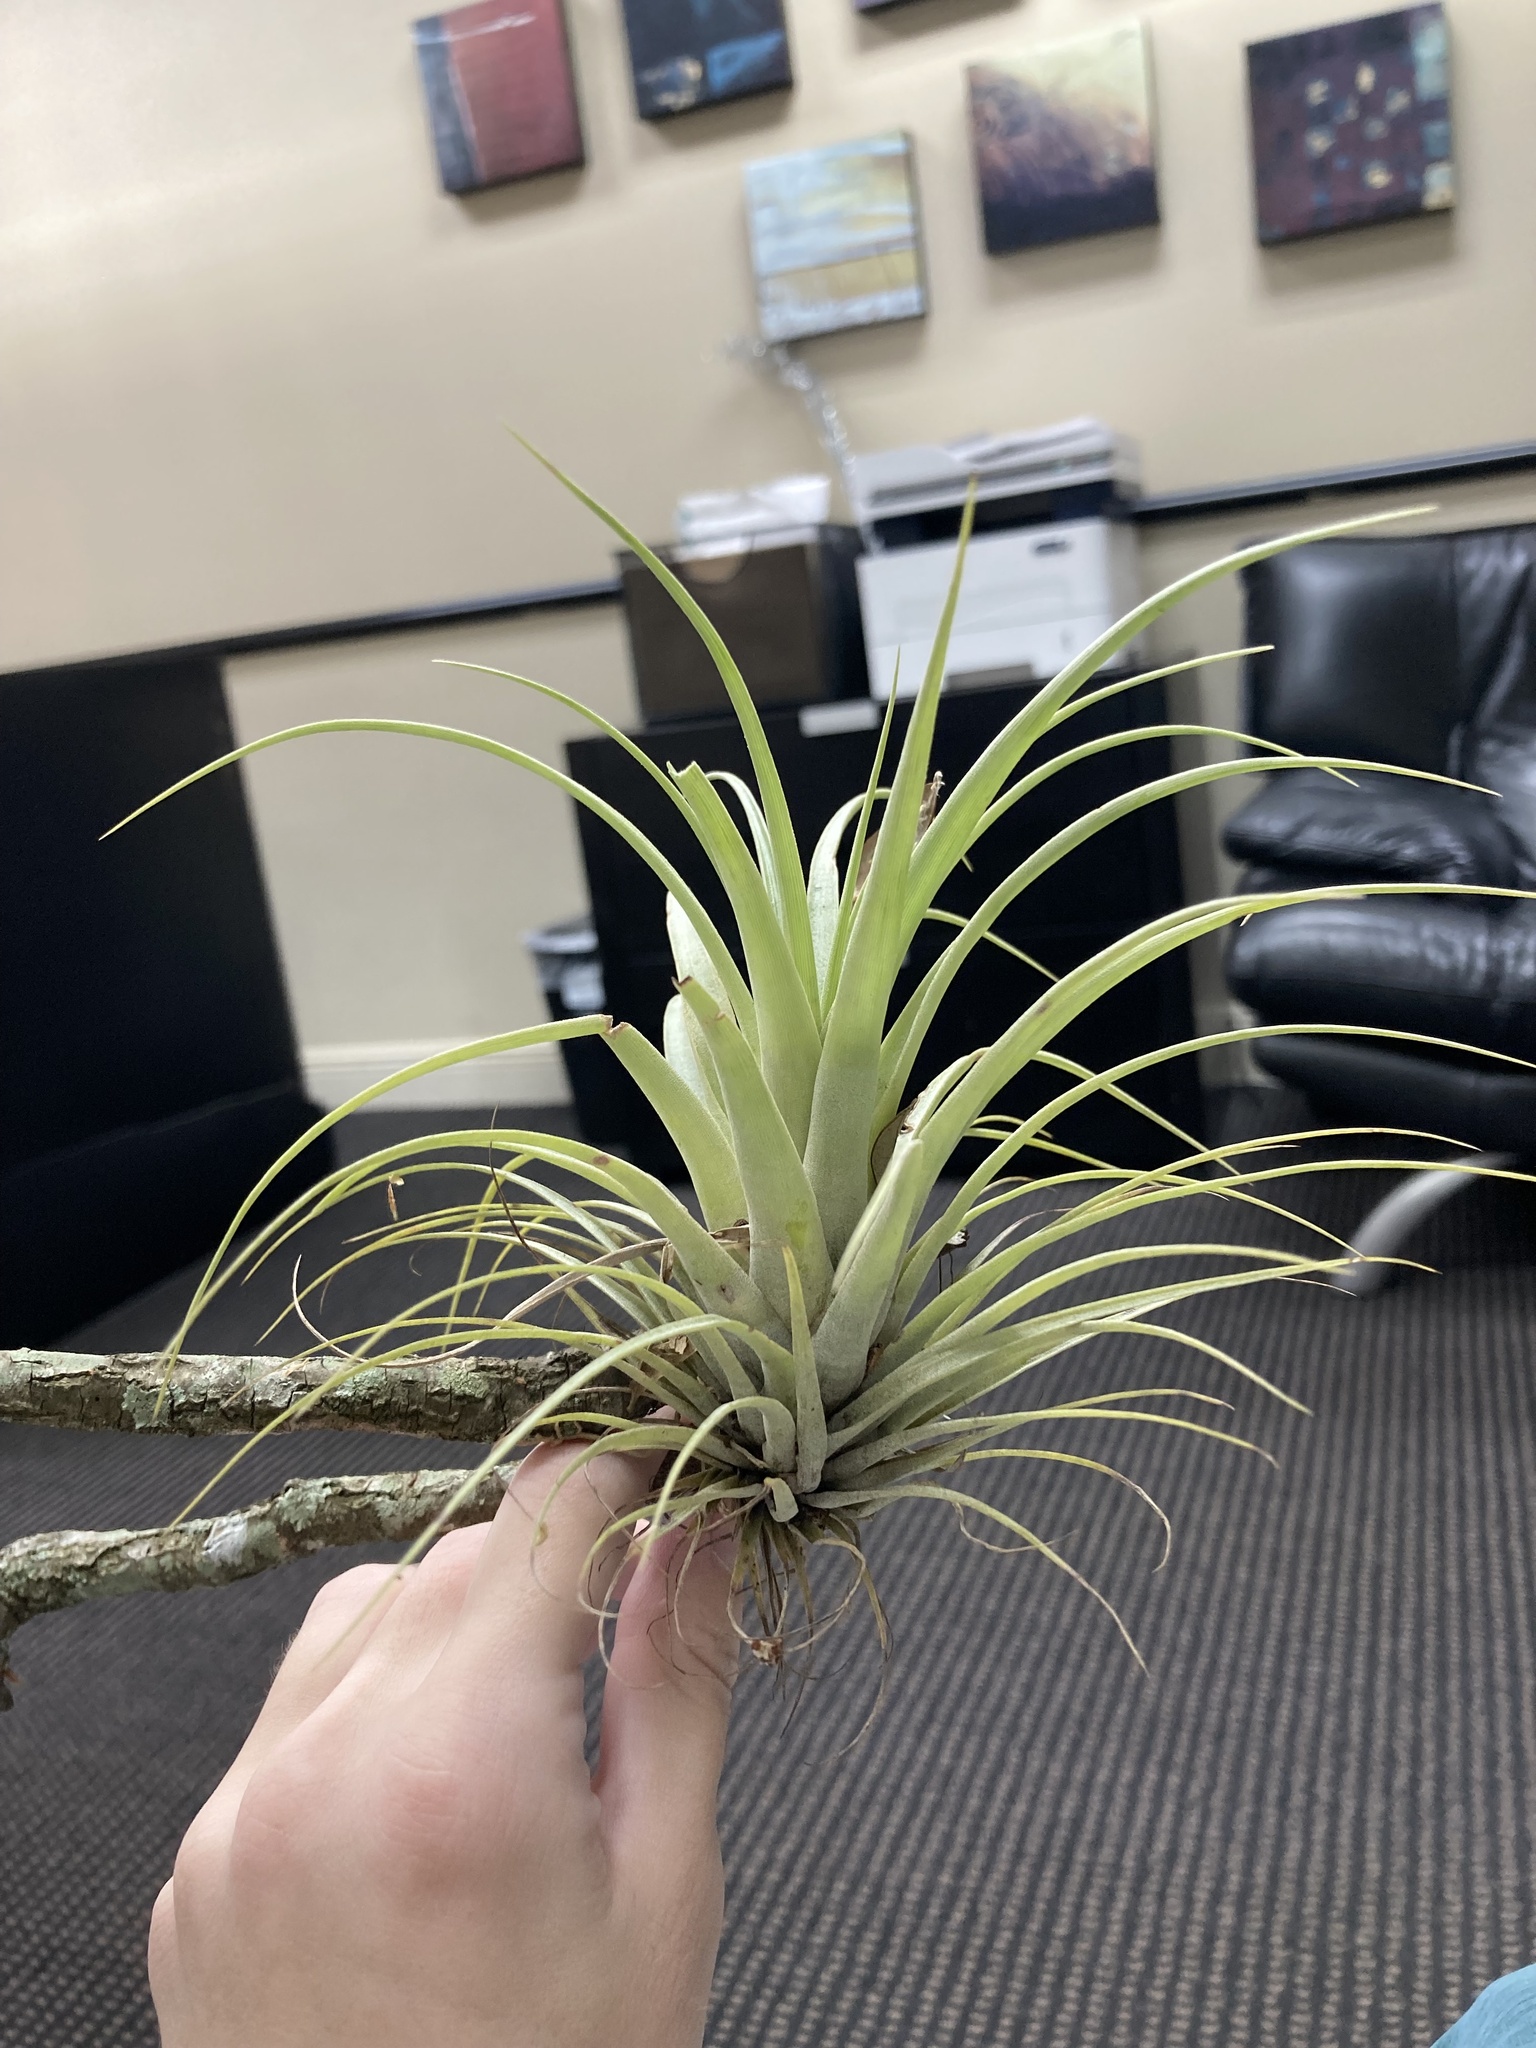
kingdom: Plantae
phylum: Tracheophyta
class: Liliopsida
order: Poales
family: Bromeliaceae
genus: Tillandsia
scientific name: Tillandsia utriculata
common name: Wild pine
